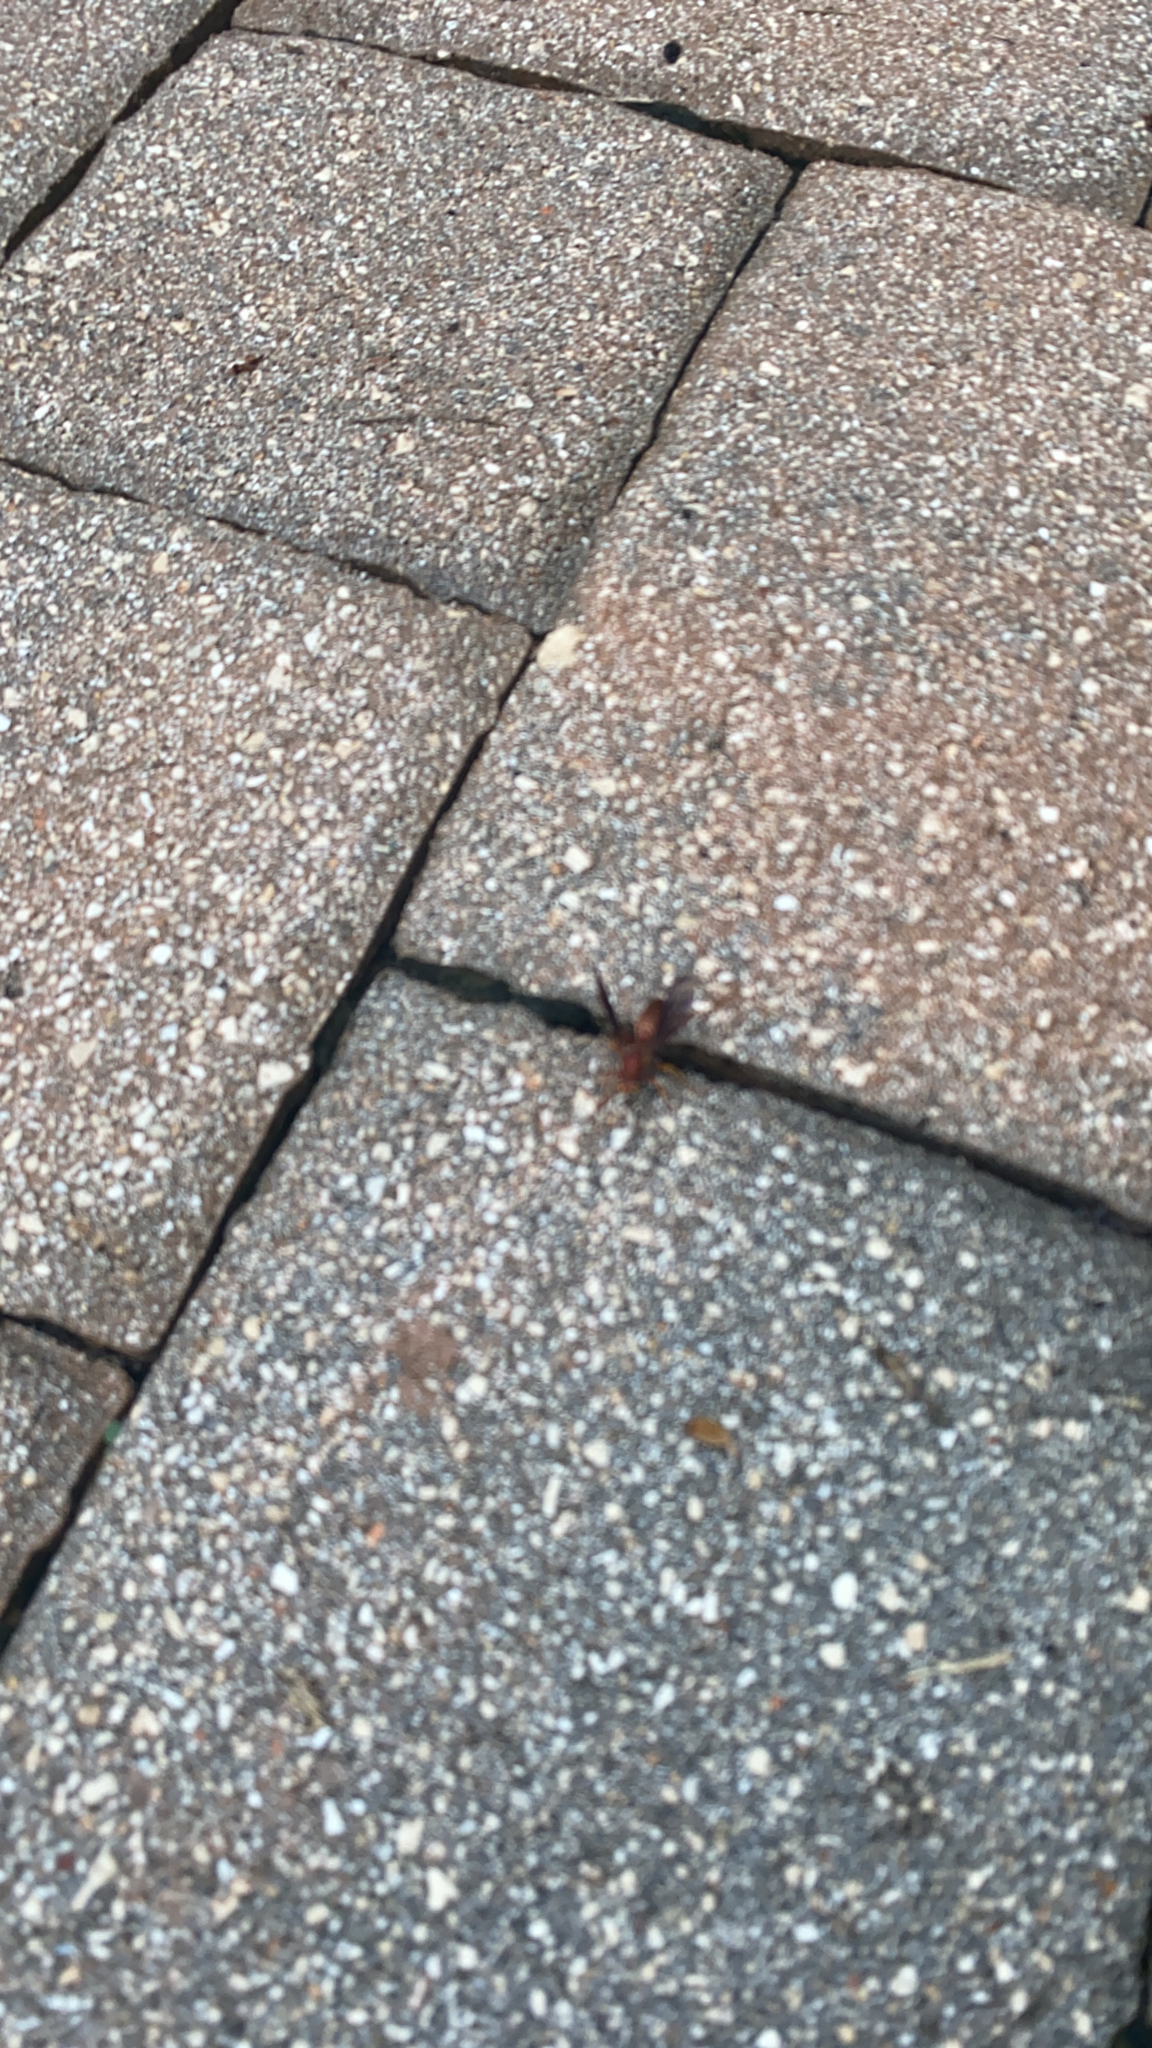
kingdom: Animalia
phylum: Arthropoda
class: Insecta
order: Hymenoptera
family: Eumenidae
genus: Polistes
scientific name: Polistes metricus
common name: Metric paper wasp
